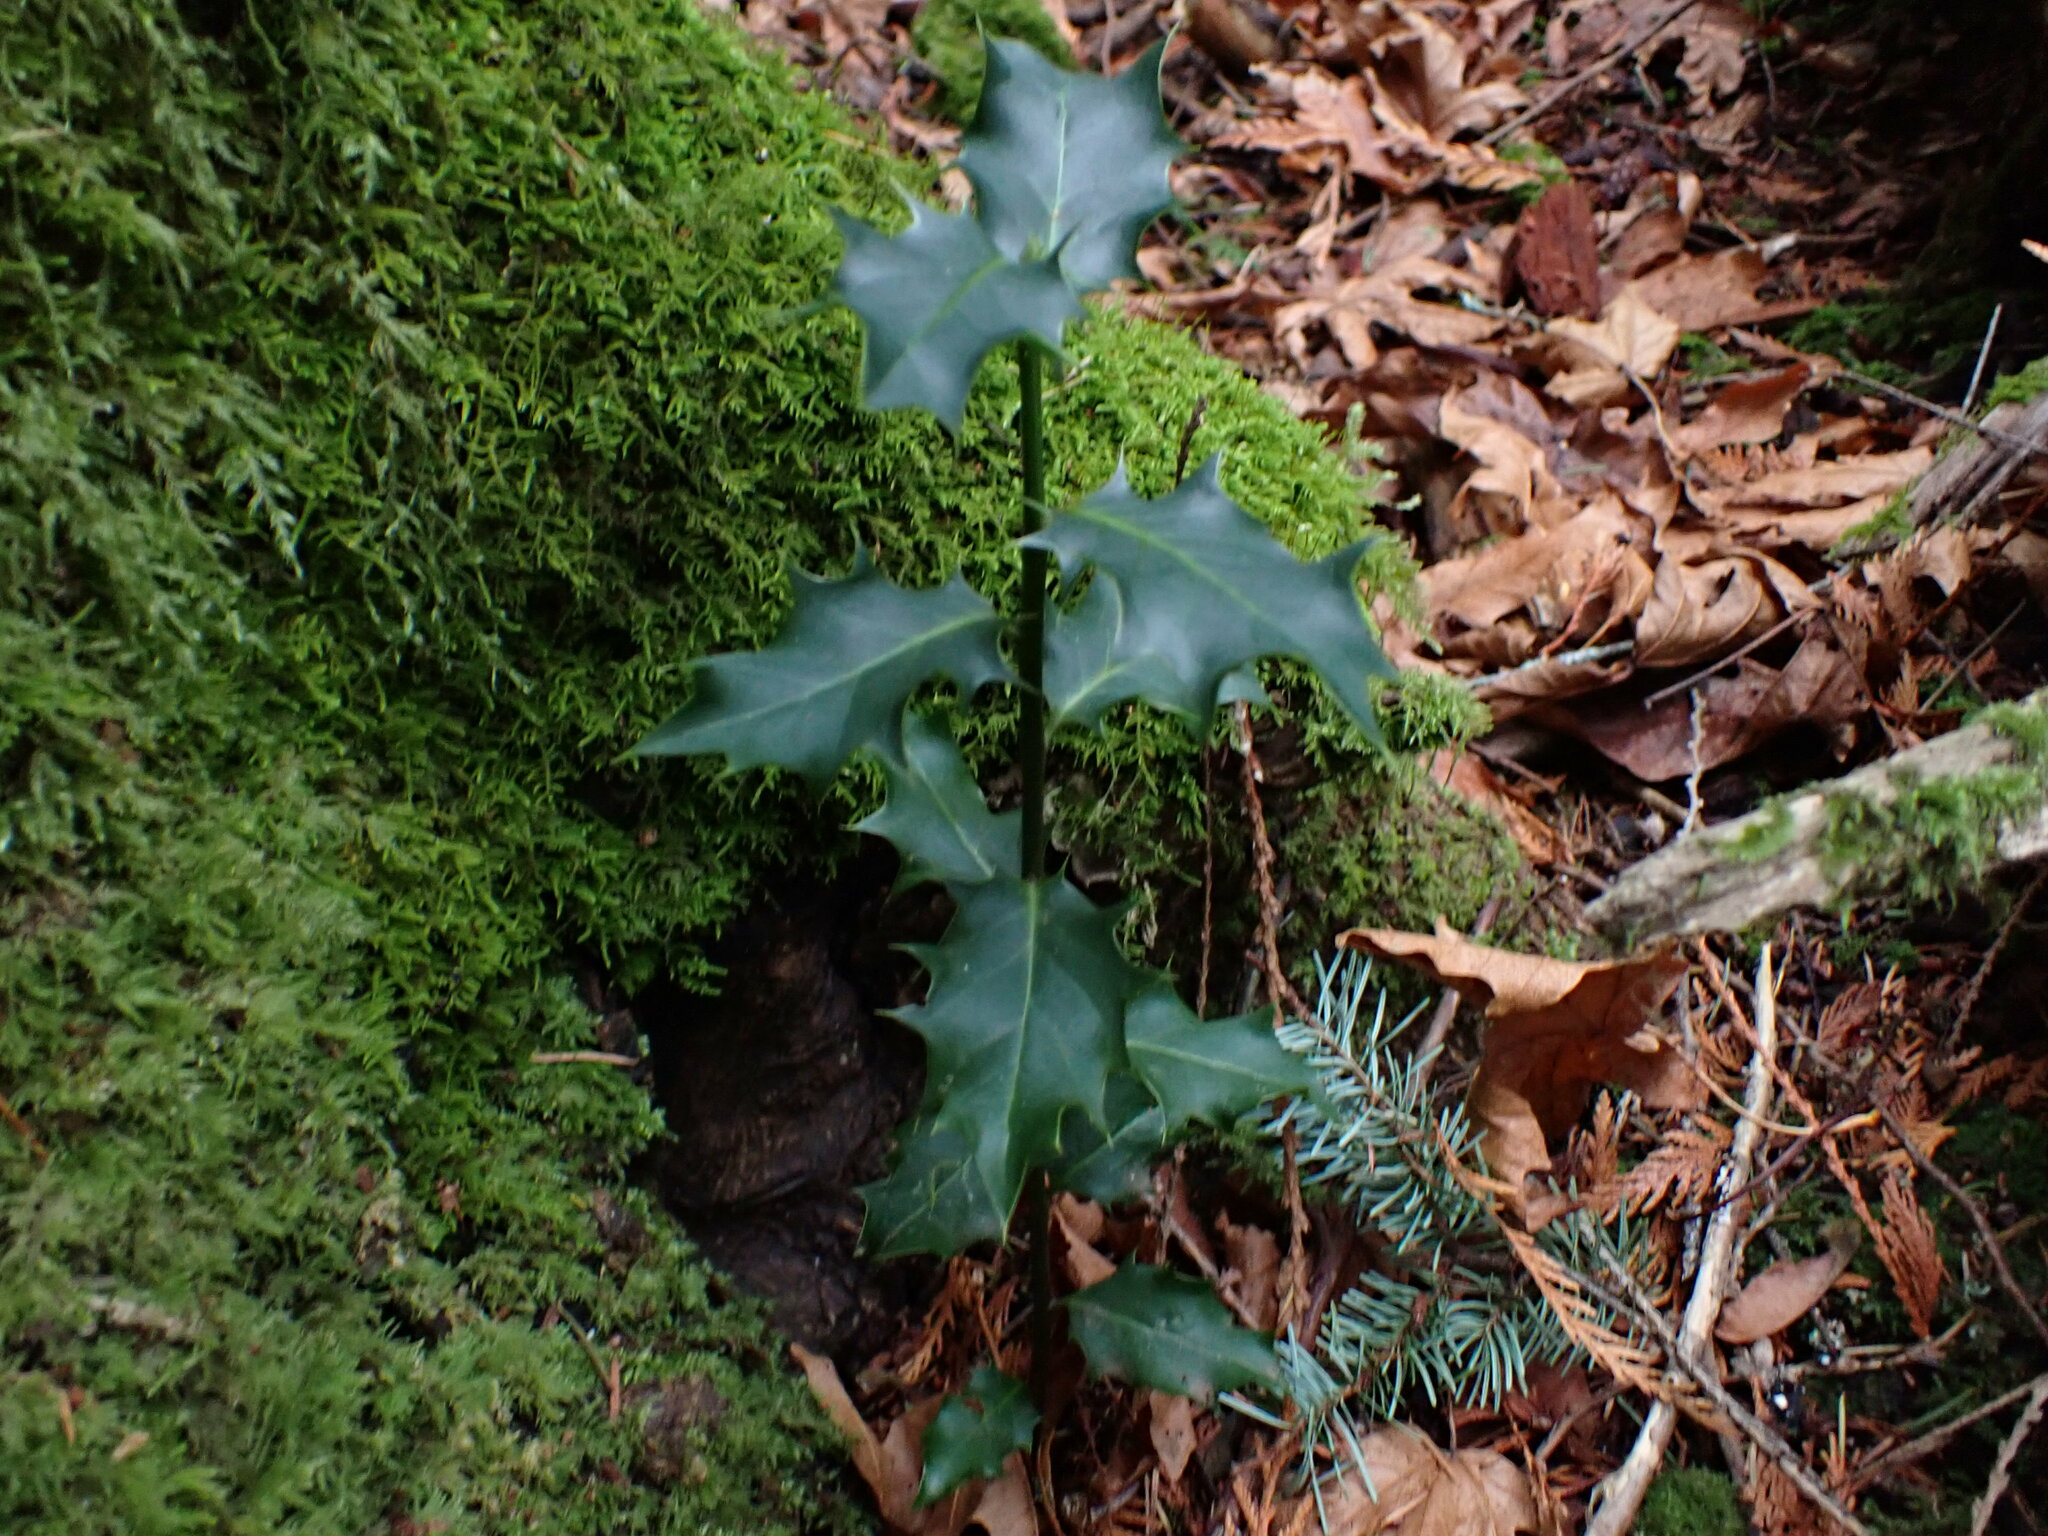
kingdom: Plantae
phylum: Tracheophyta
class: Magnoliopsida
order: Aquifoliales
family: Aquifoliaceae
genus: Ilex
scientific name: Ilex aquifolium
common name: English holly
